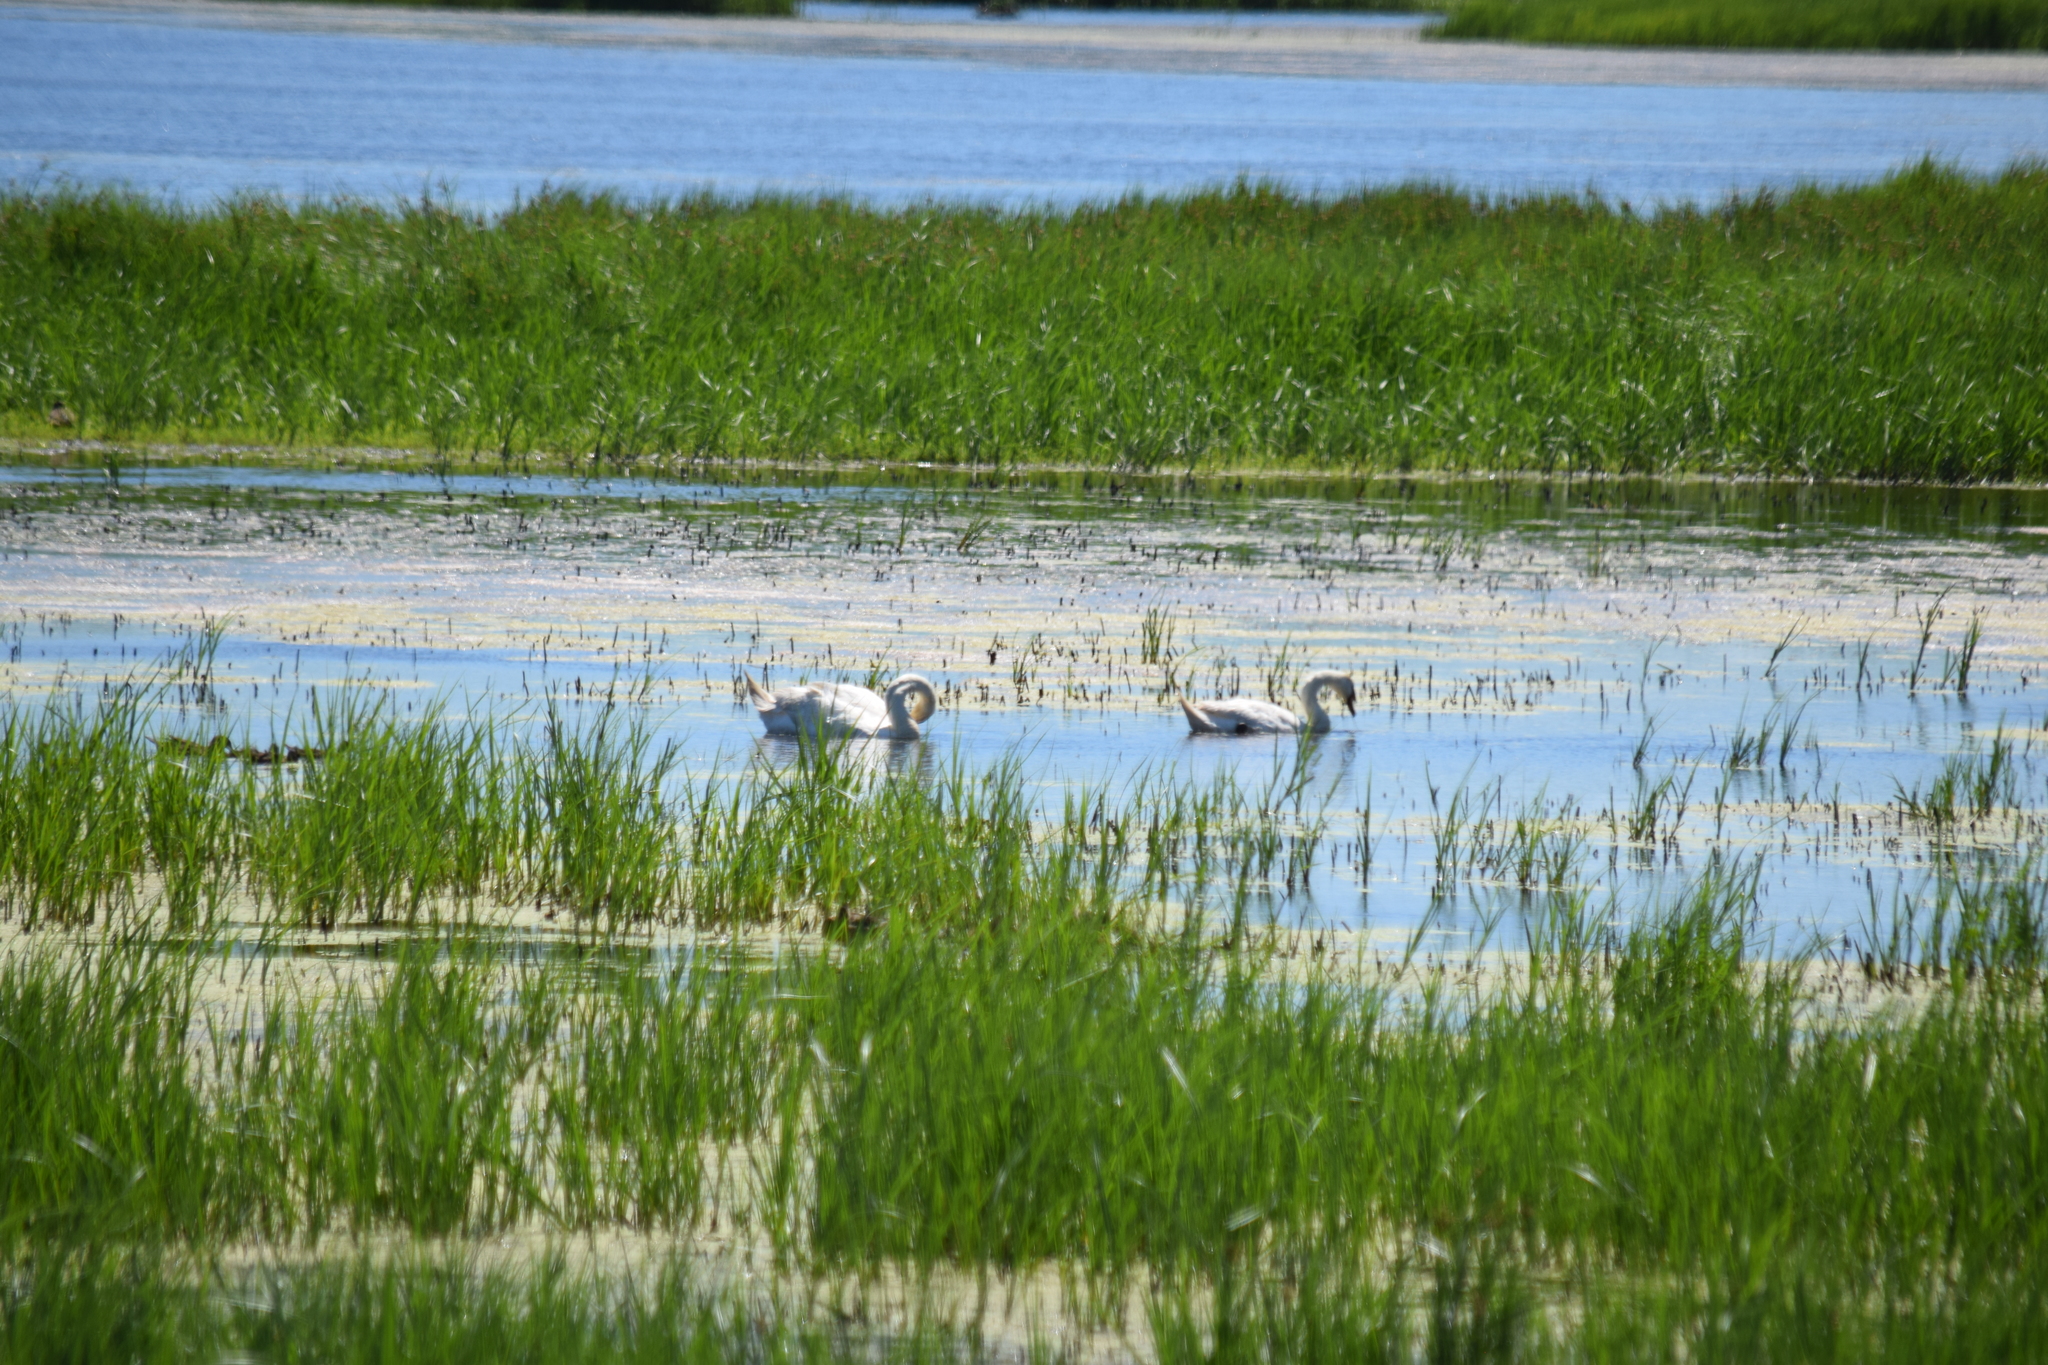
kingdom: Animalia
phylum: Chordata
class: Aves
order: Anseriformes
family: Anatidae
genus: Cygnus
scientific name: Cygnus olor
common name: Mute swan
